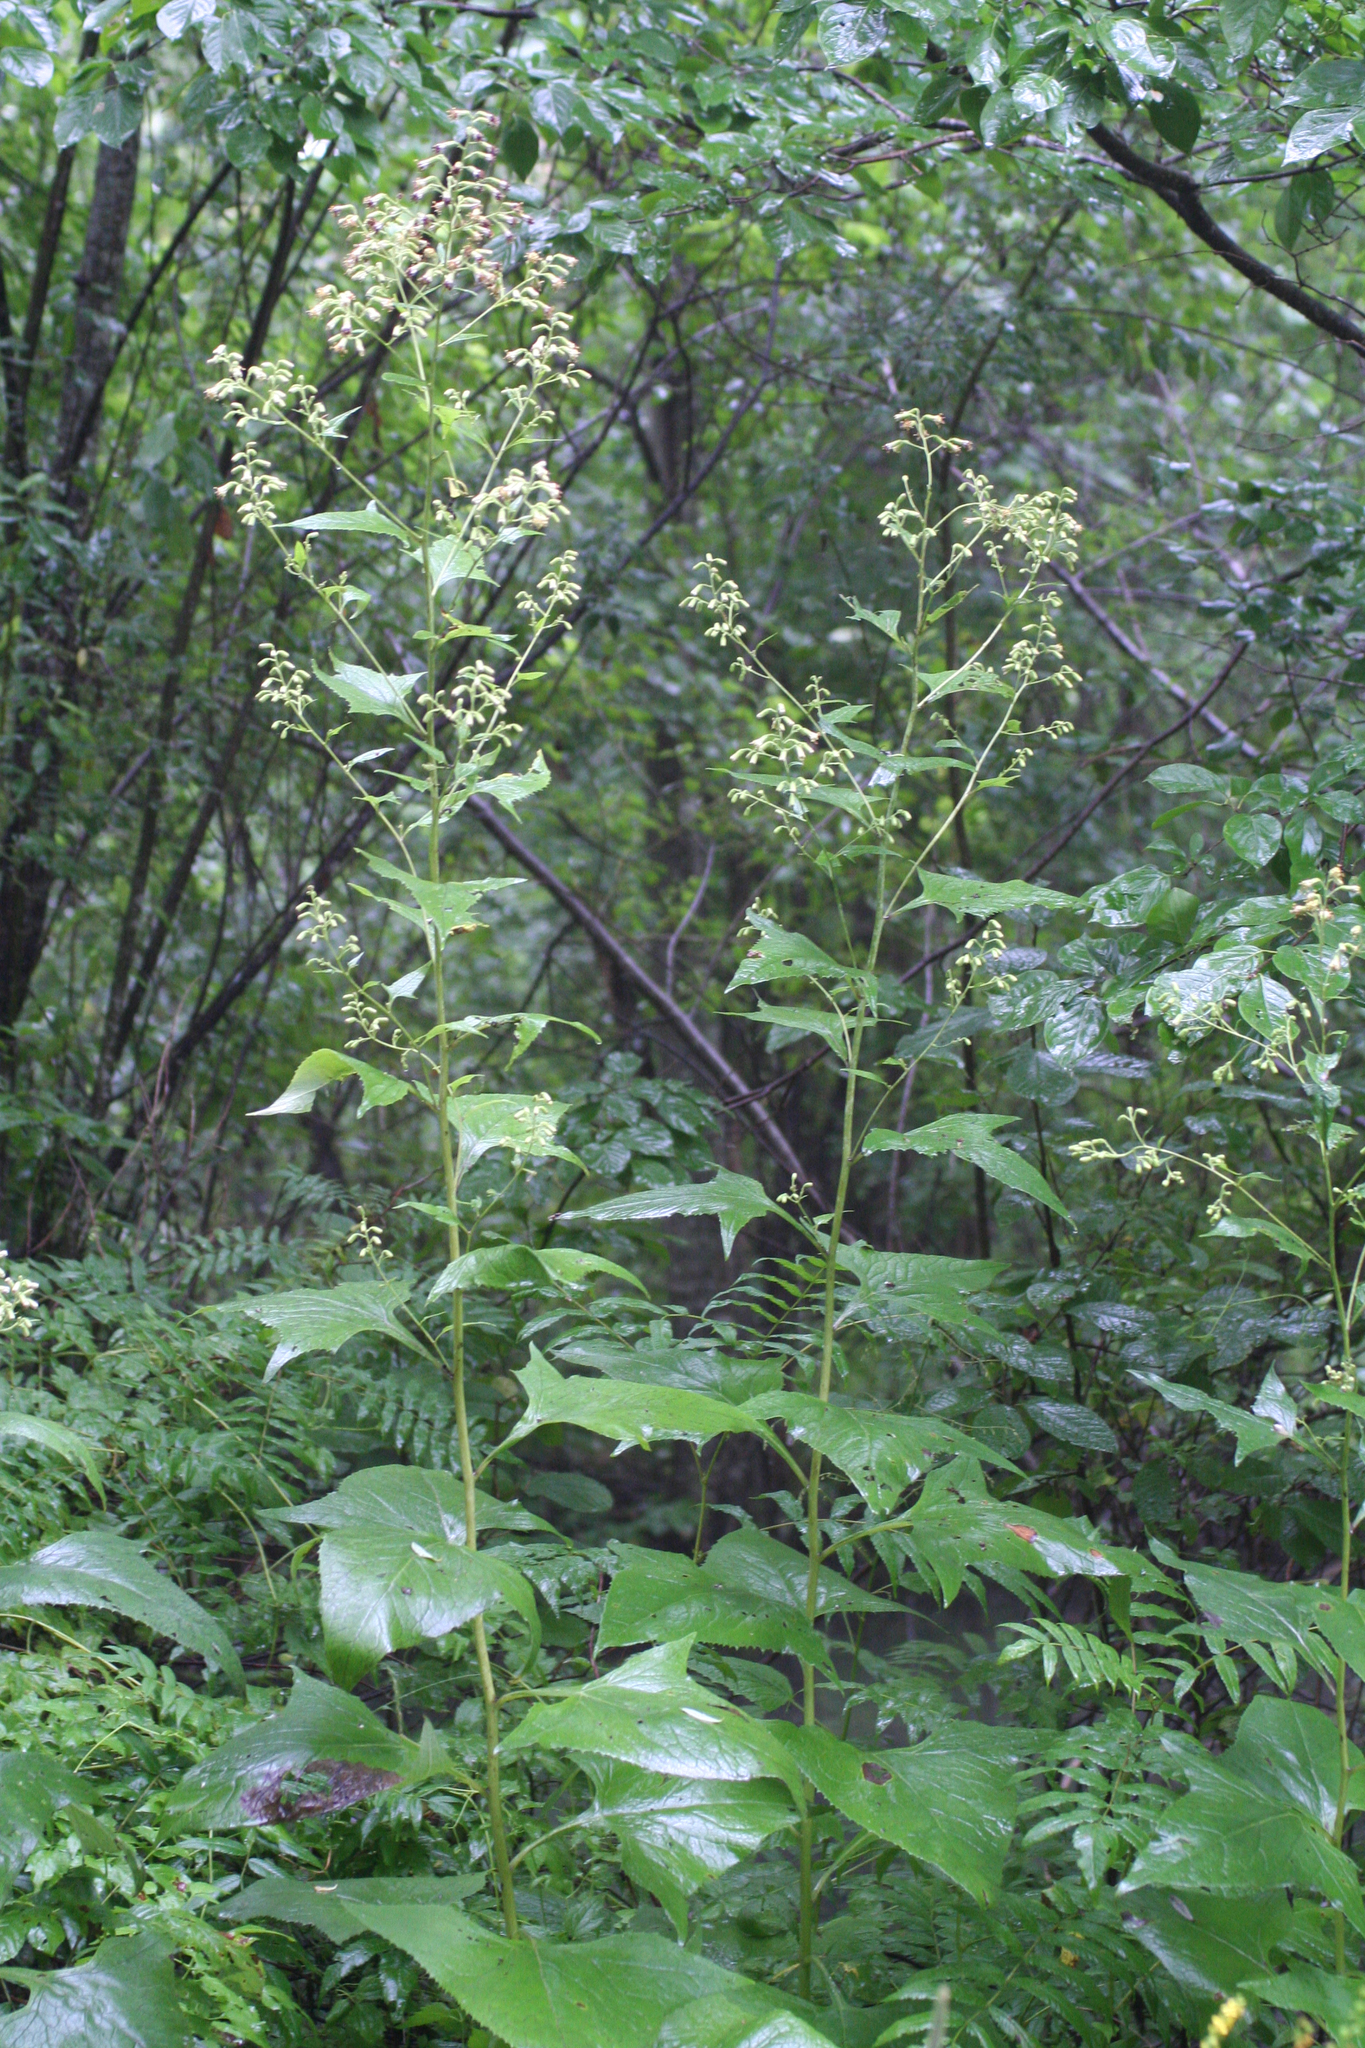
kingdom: Plantae
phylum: Tracheophyta
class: Magnoliopsida
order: Asterales
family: Asteraceae
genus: Parasenecio
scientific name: Parasenecio hastatus
